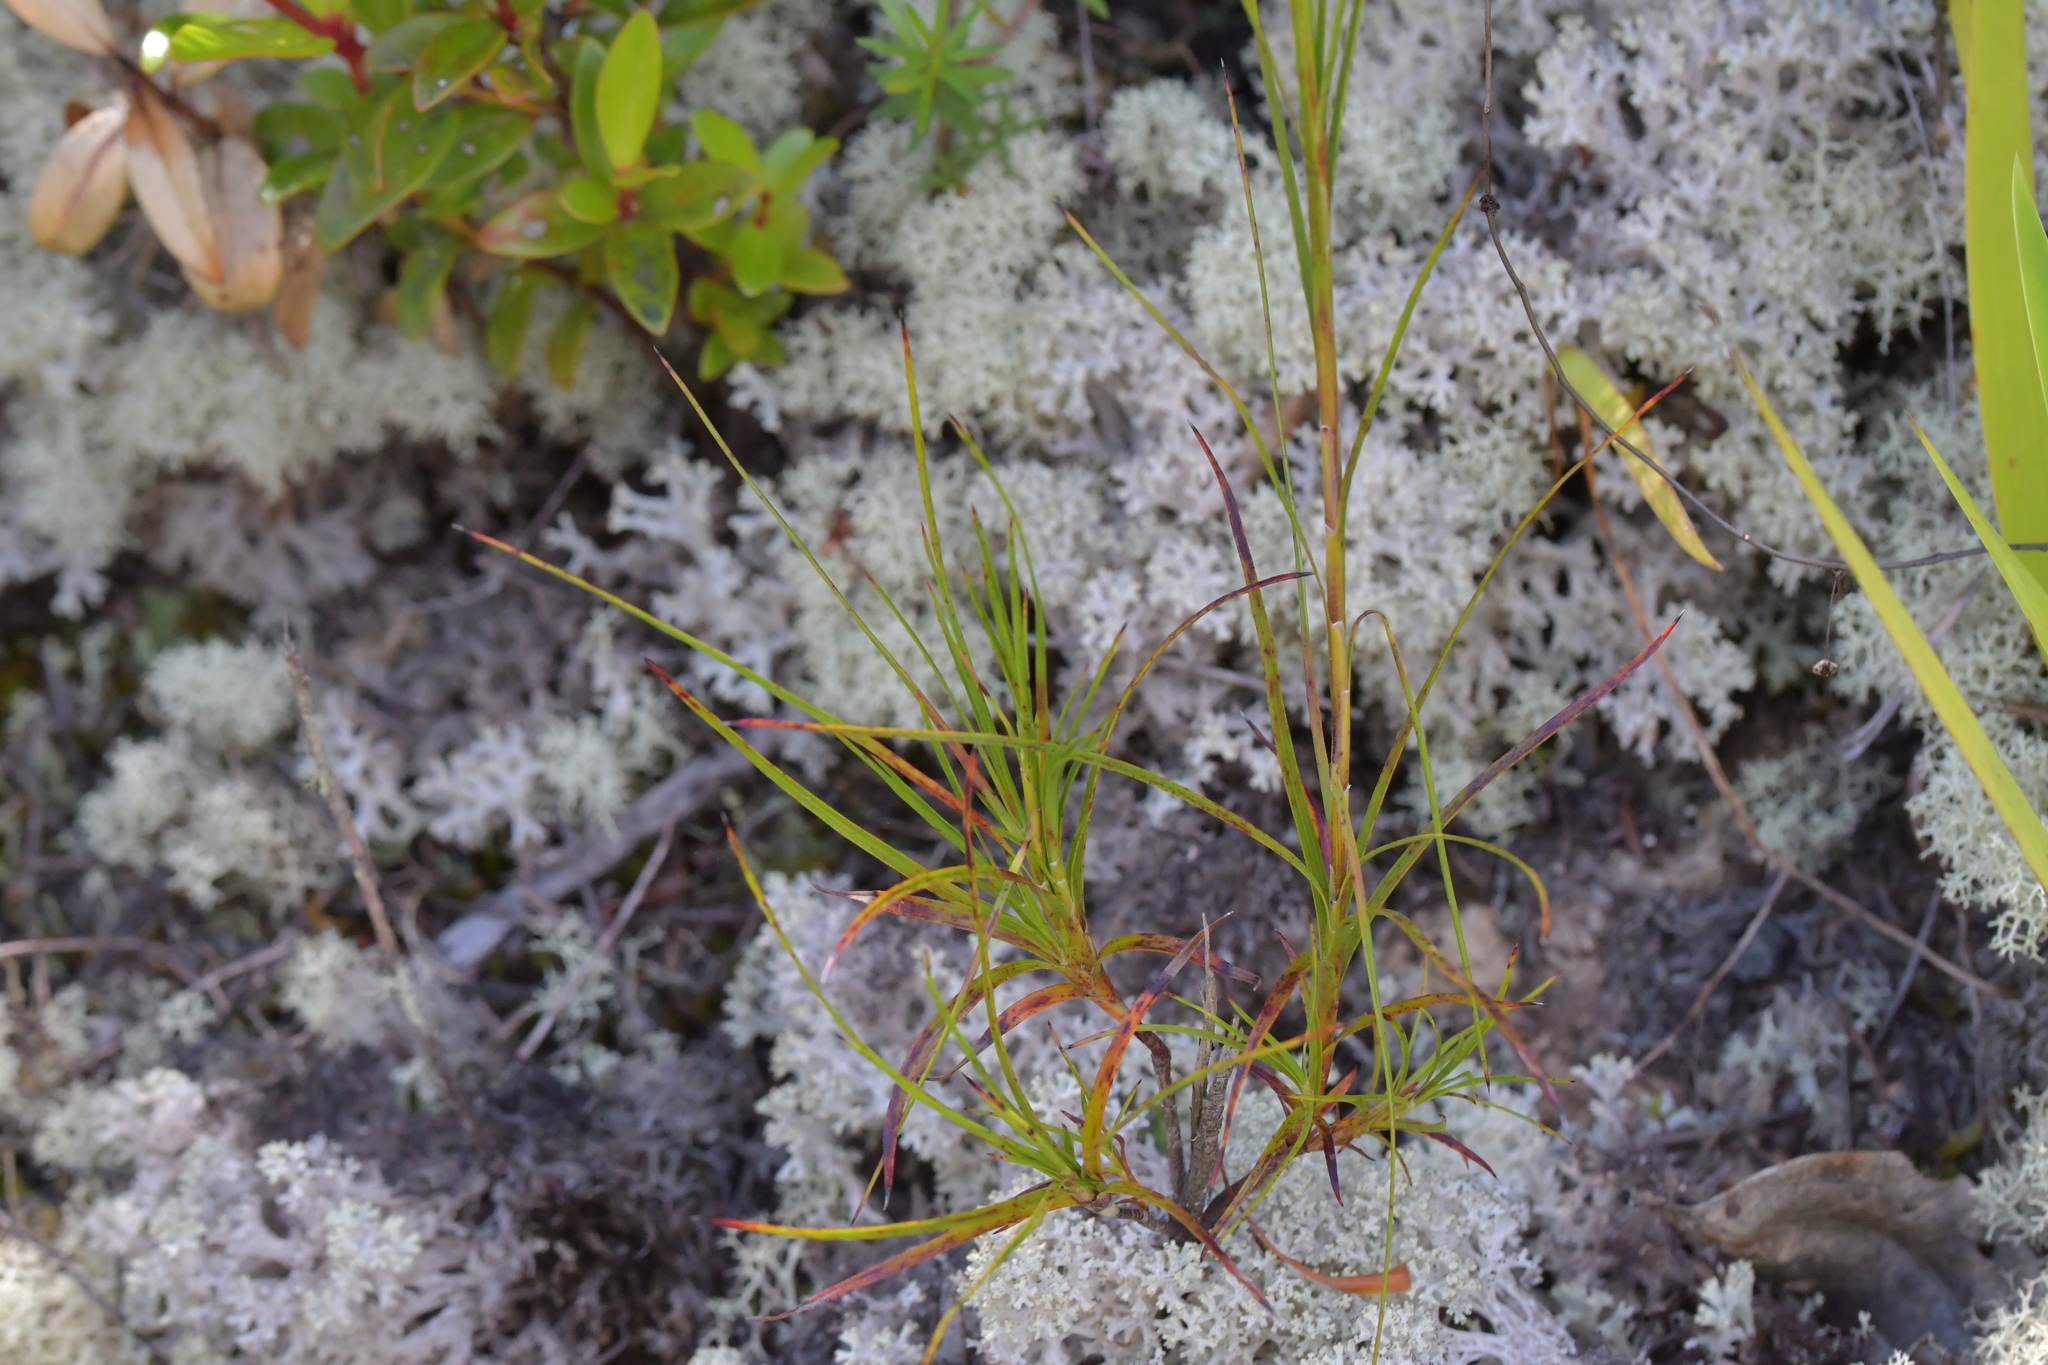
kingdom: Plantae
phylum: Tracheophyta
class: Magnoliopsida
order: Ericales
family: Ericaceae
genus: Dracophyllum
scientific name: Dracophyllum sinclairii
